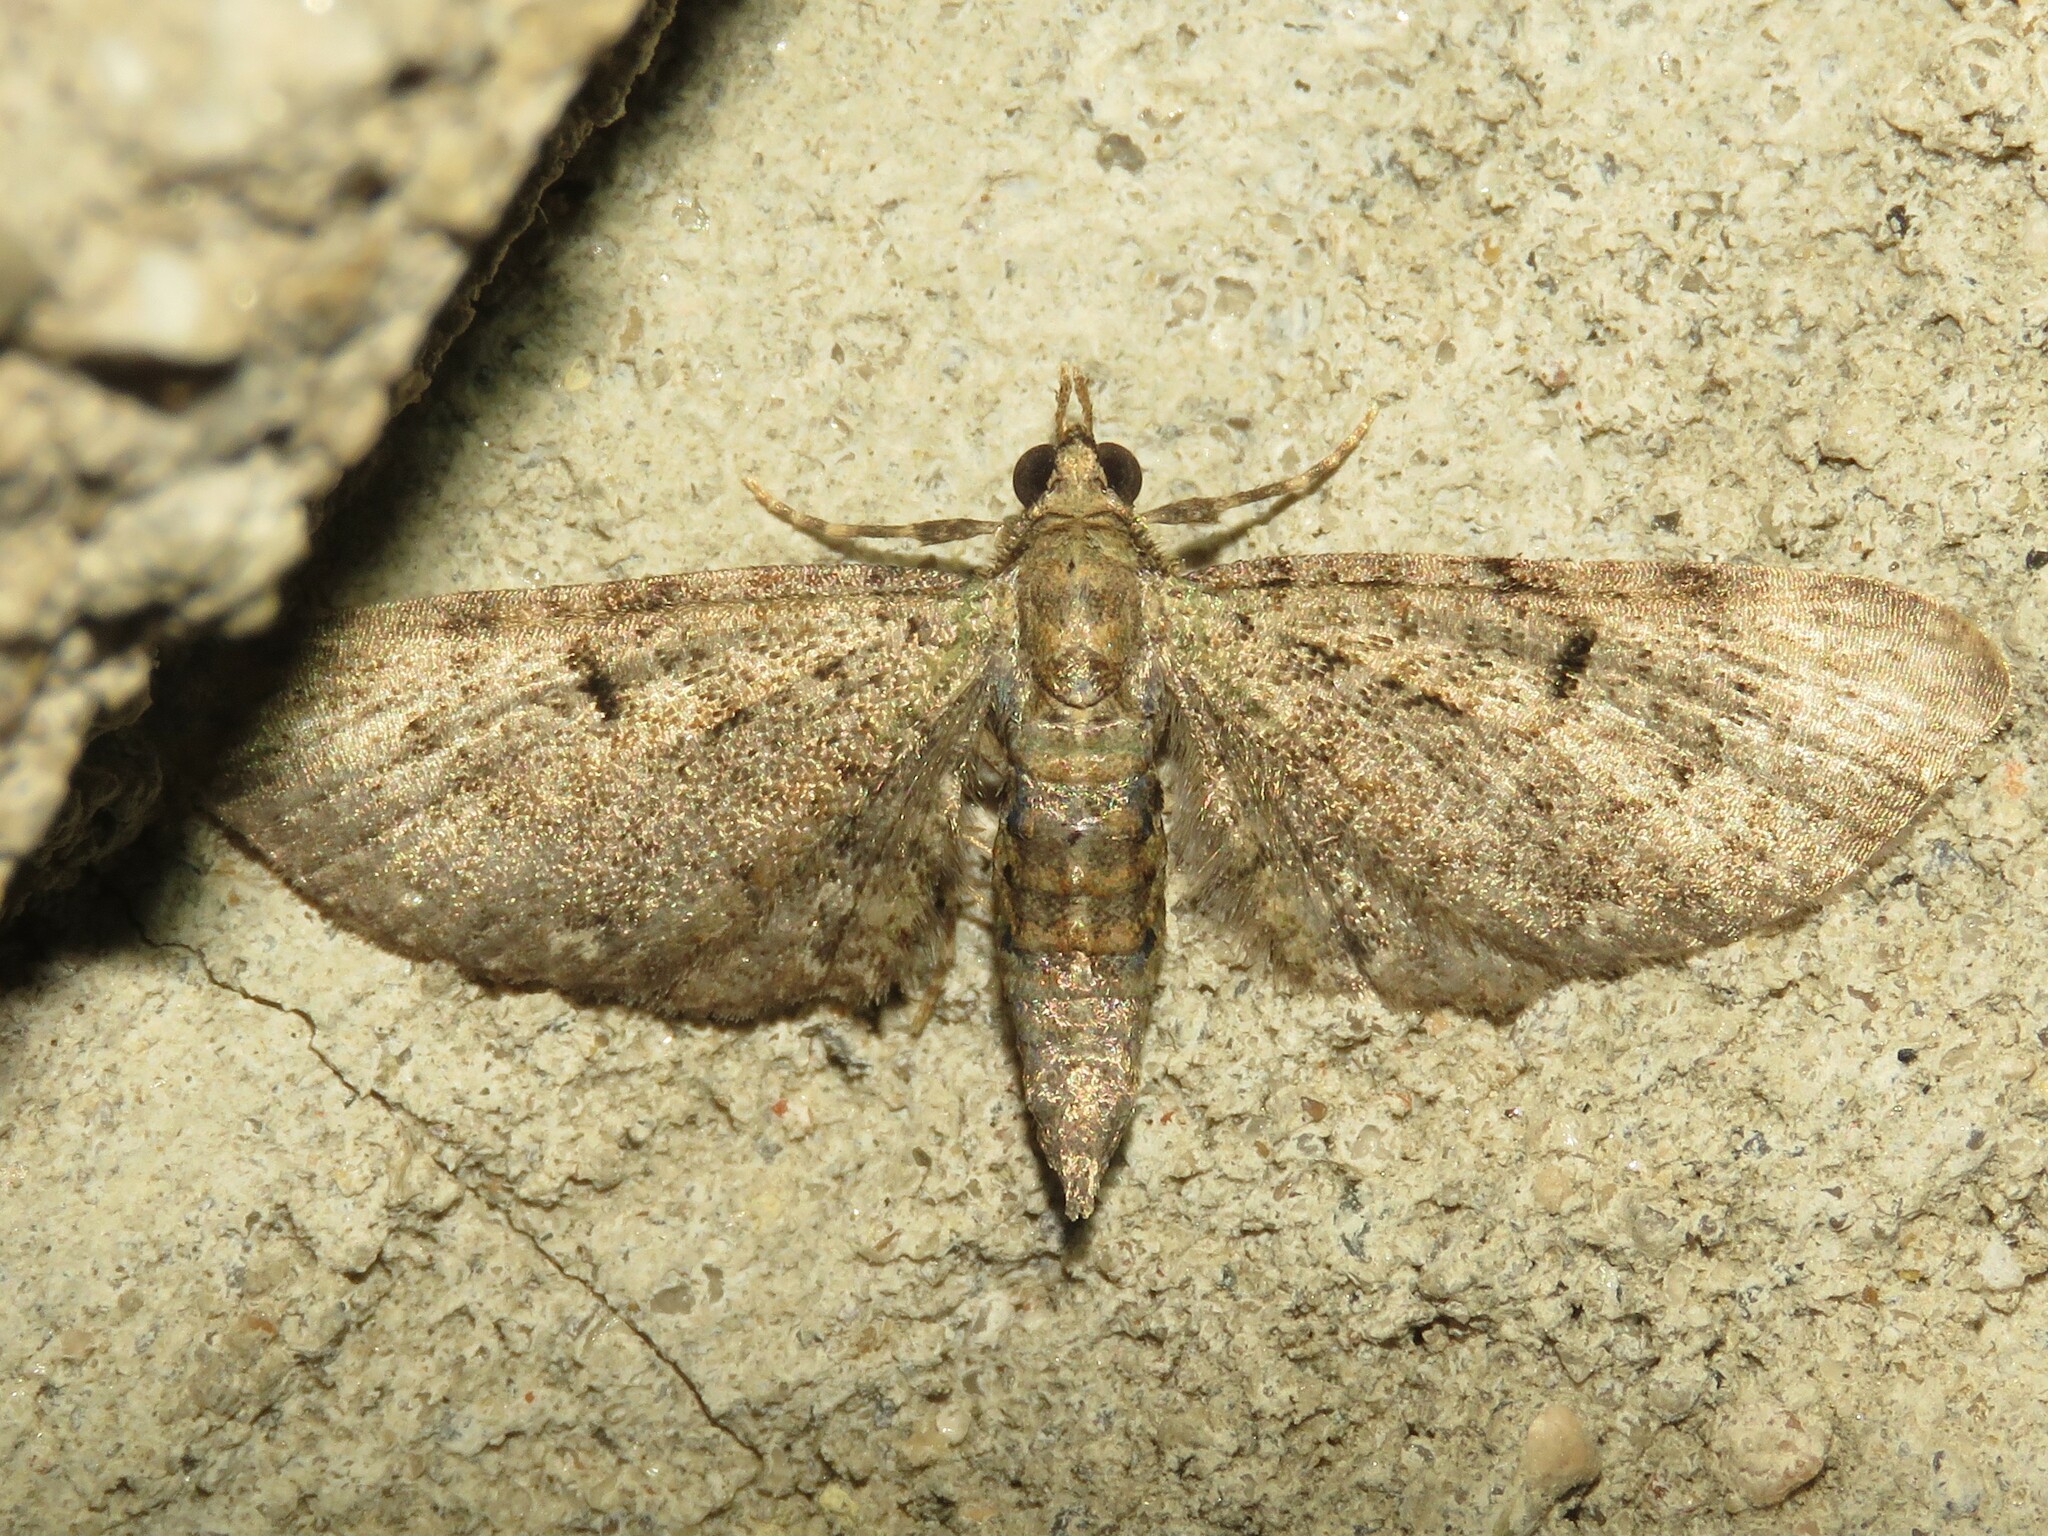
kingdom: Animalia
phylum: Arthropoda
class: Insecta
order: Lepidoptera
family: Geometridae
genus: Eupithecia
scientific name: Eupithecia miserulata
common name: Common eupithecia
